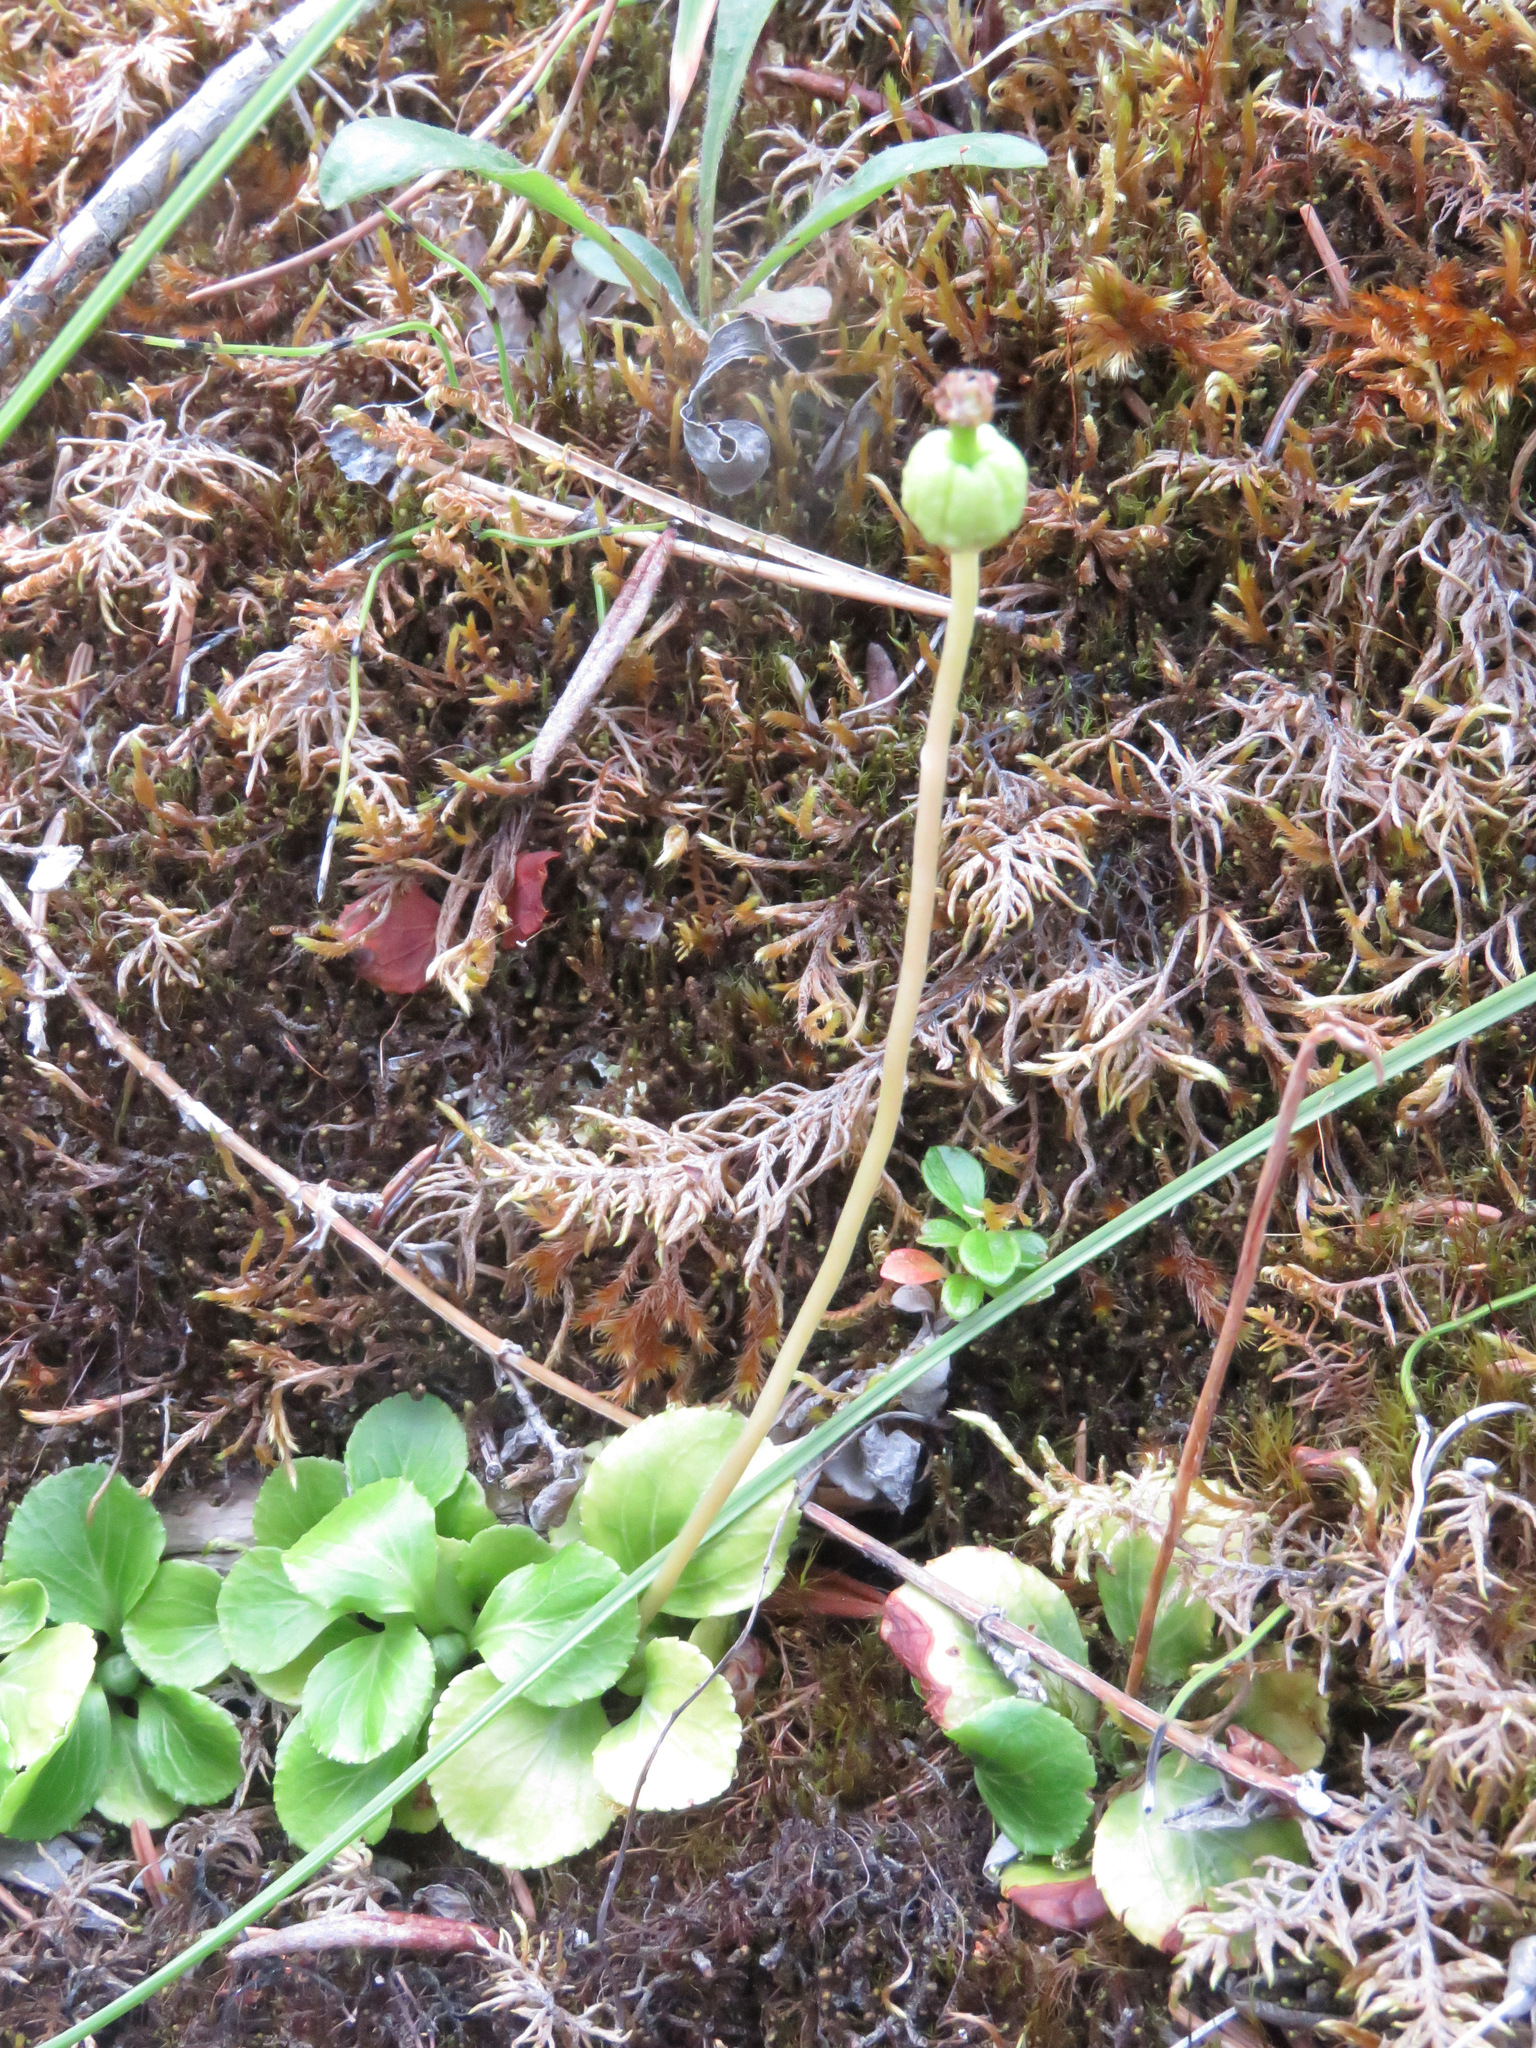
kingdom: Plantae
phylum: Tracheophyta
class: Magnoliopsida
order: Ericales
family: Ericaceae
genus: Moneses
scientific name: Moneses uniflora
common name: One-flowered wintergreen
